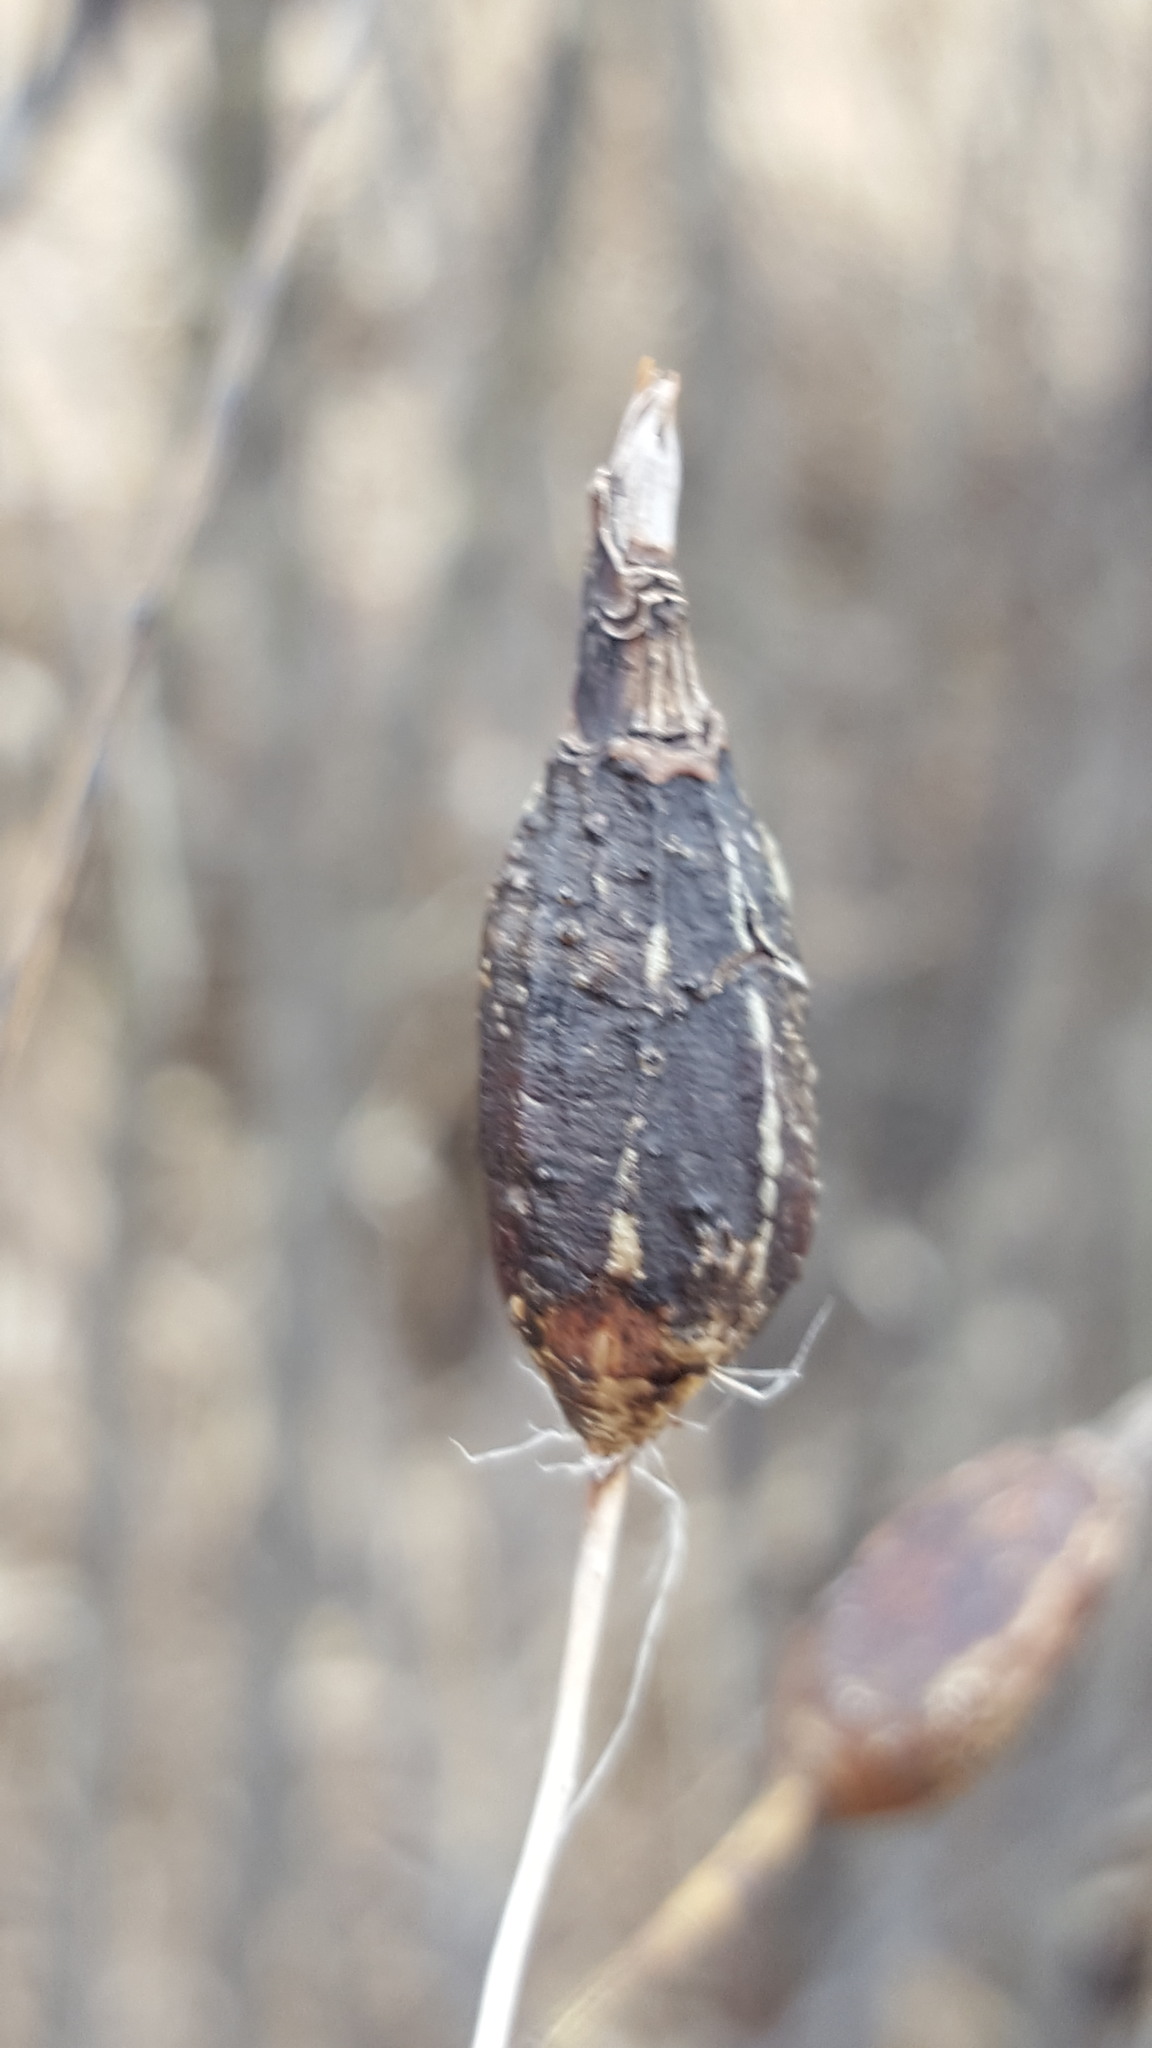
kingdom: Animalia
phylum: Arthropoda
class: Insecta
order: Diptera
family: Cecidomyiidae
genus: Thecodiplosis
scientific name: Thecodiplosis pinirigidae
